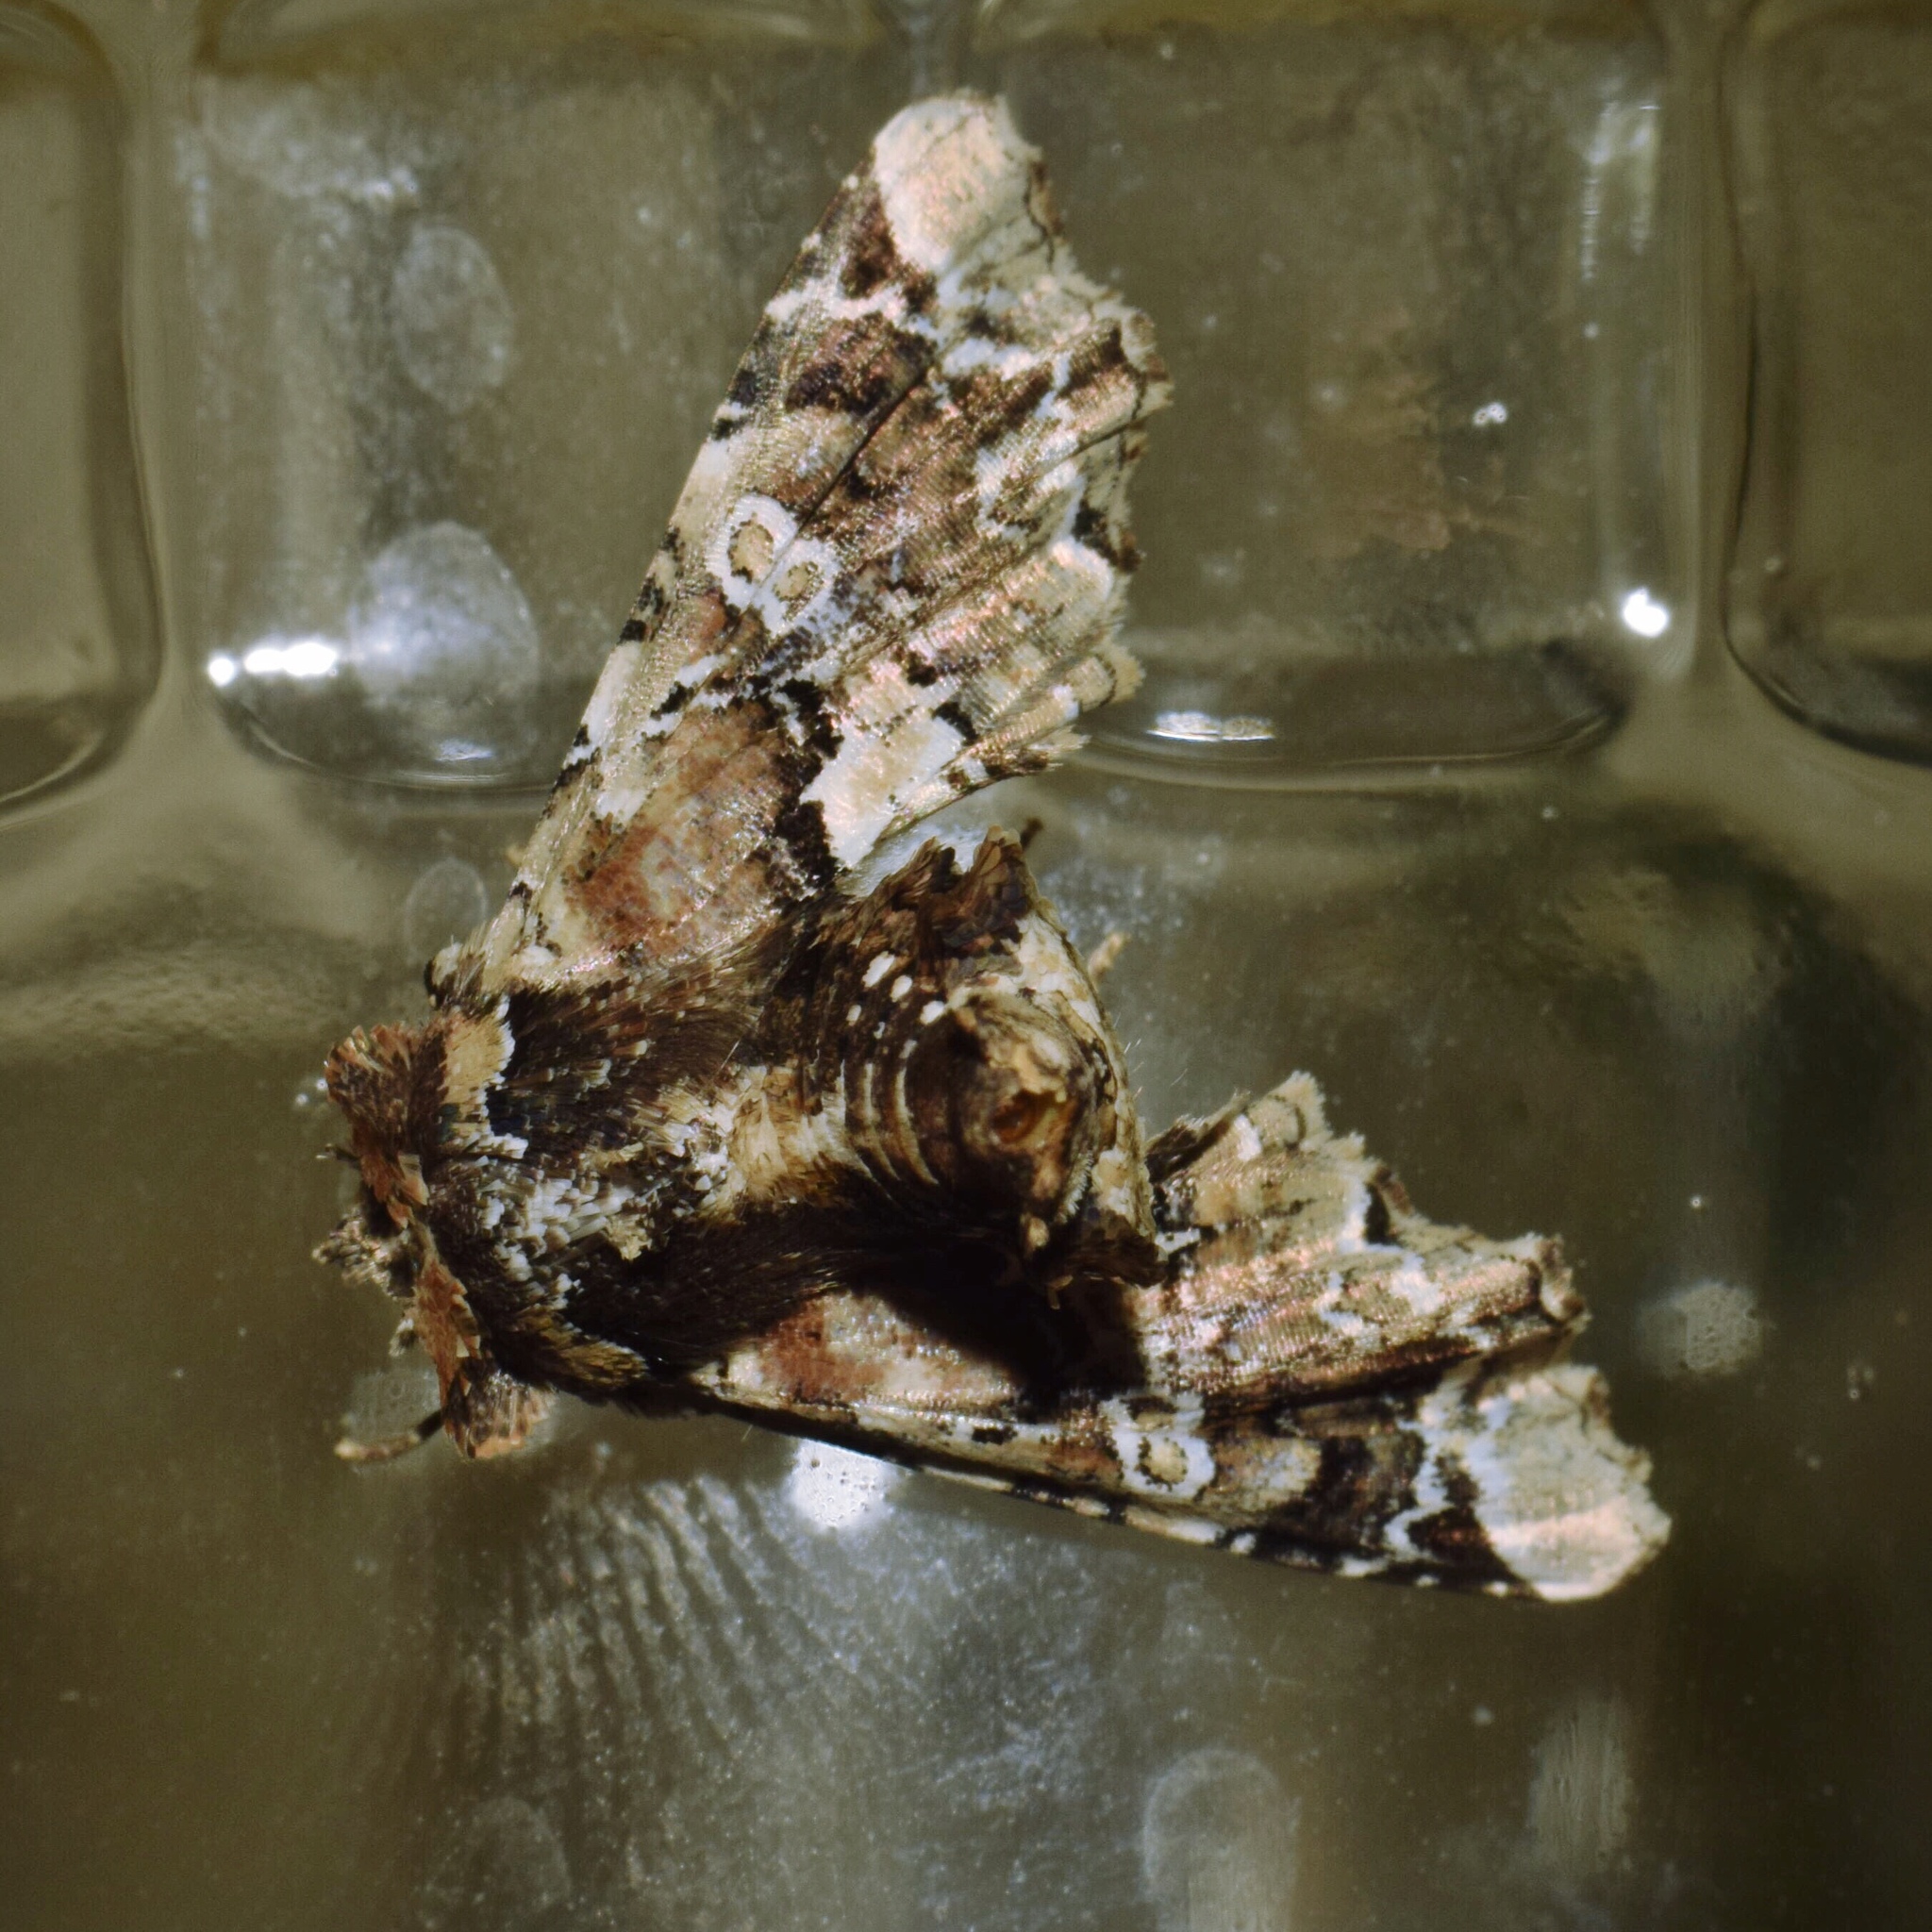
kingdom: Animalia
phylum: Arthropoda
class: Insecta
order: Lepidoptera
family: Euteliidae
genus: Eutelia
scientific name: Eutelia amatrix
